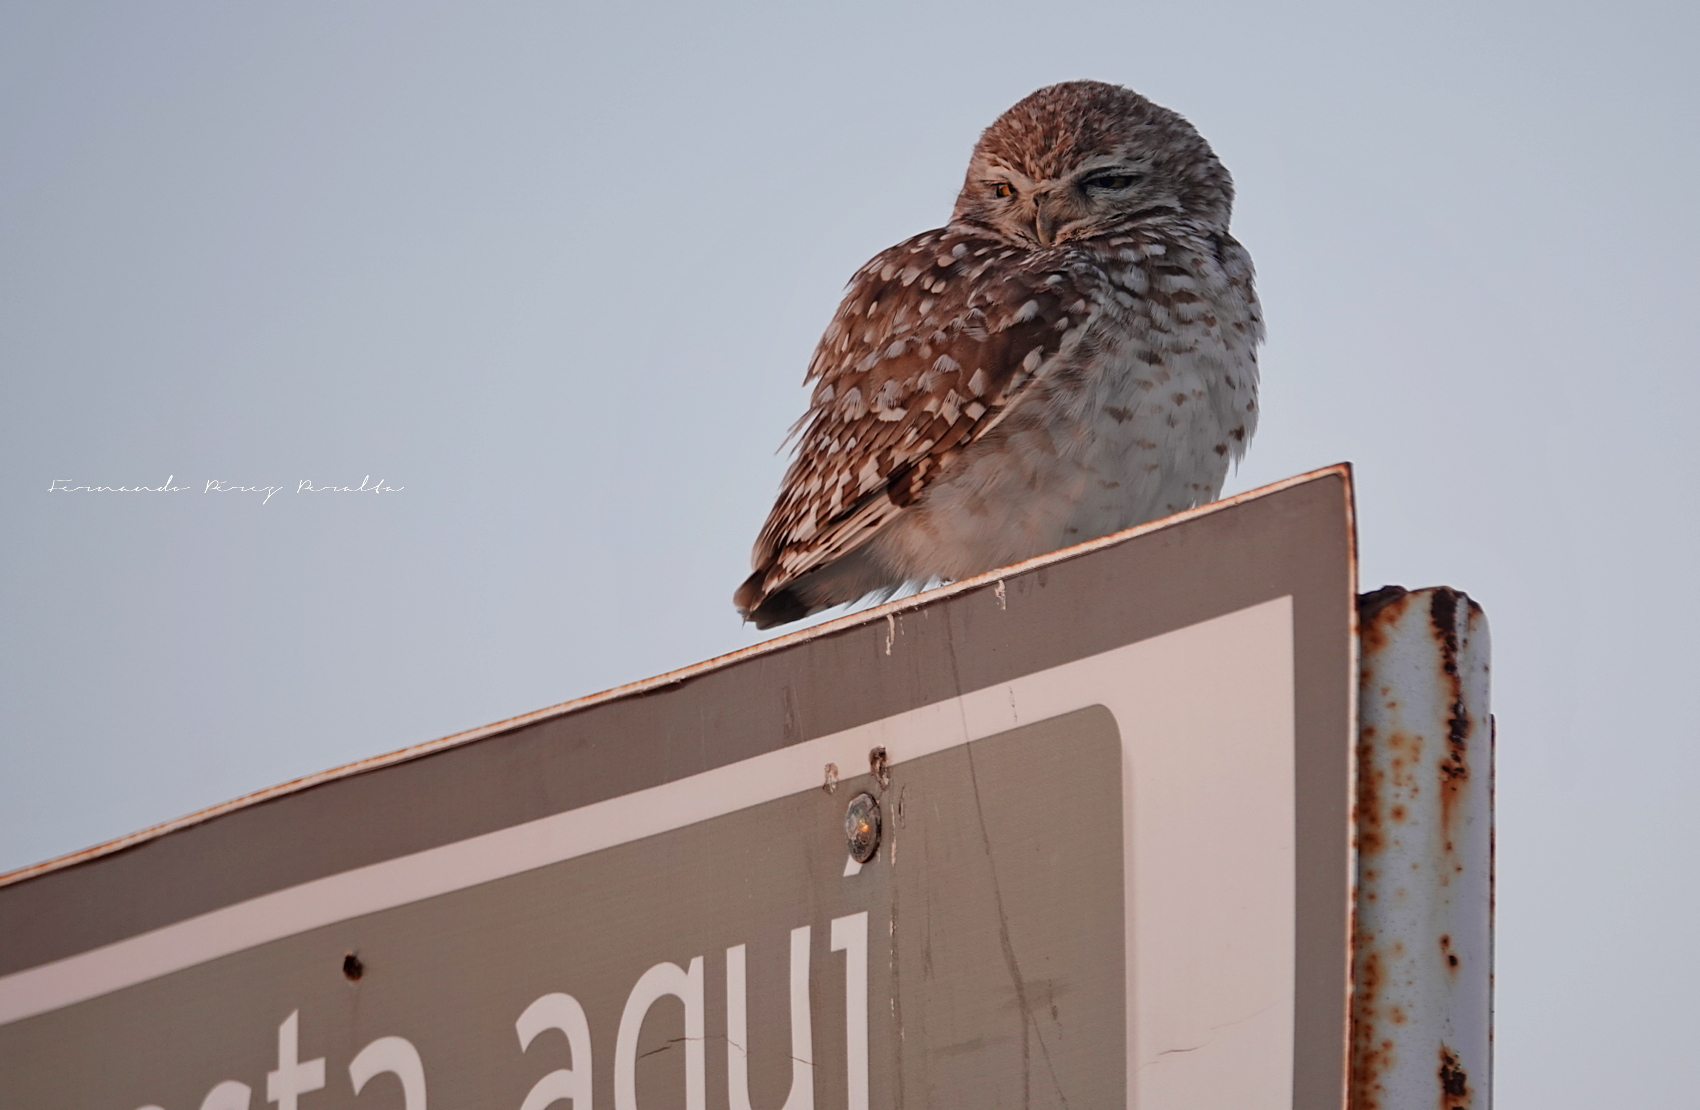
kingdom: Animalia
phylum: Chordata
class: Aves
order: Strigiformes
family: Strigidae
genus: Athene
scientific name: Athene cunicularia
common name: Burrowing owl
